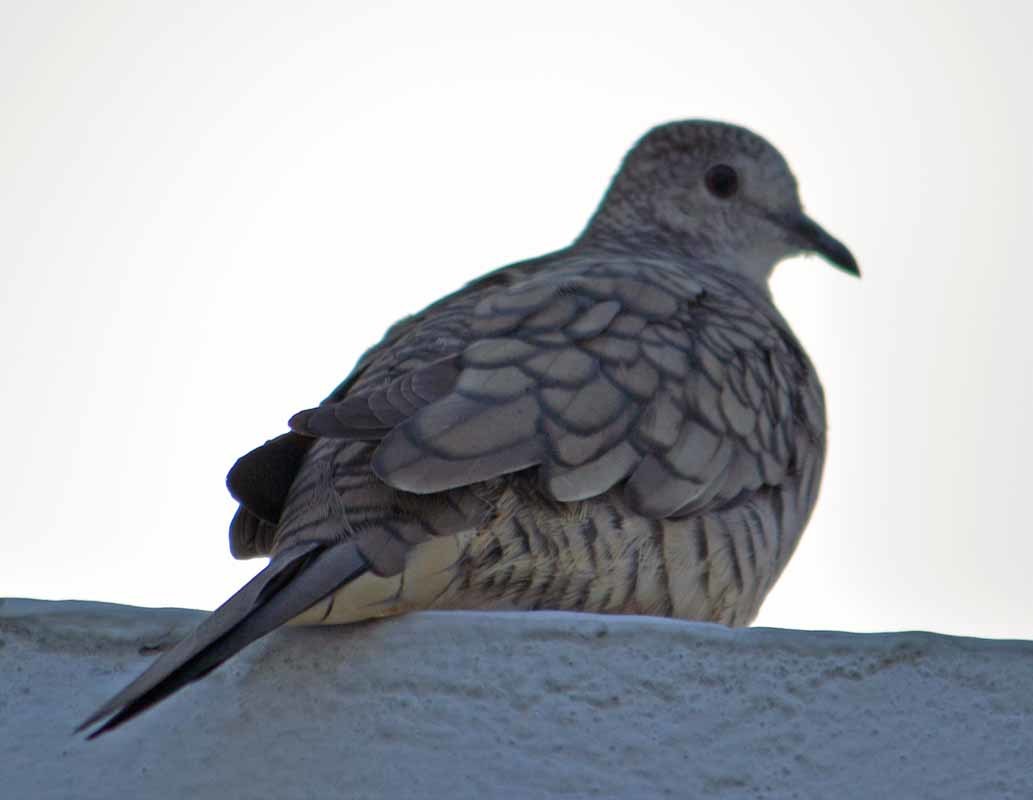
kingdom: Animalia
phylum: Chordata
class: Aves
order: Columbiformes
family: Columbidae
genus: Columbina
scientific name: Columbina inca
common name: Inca dove
